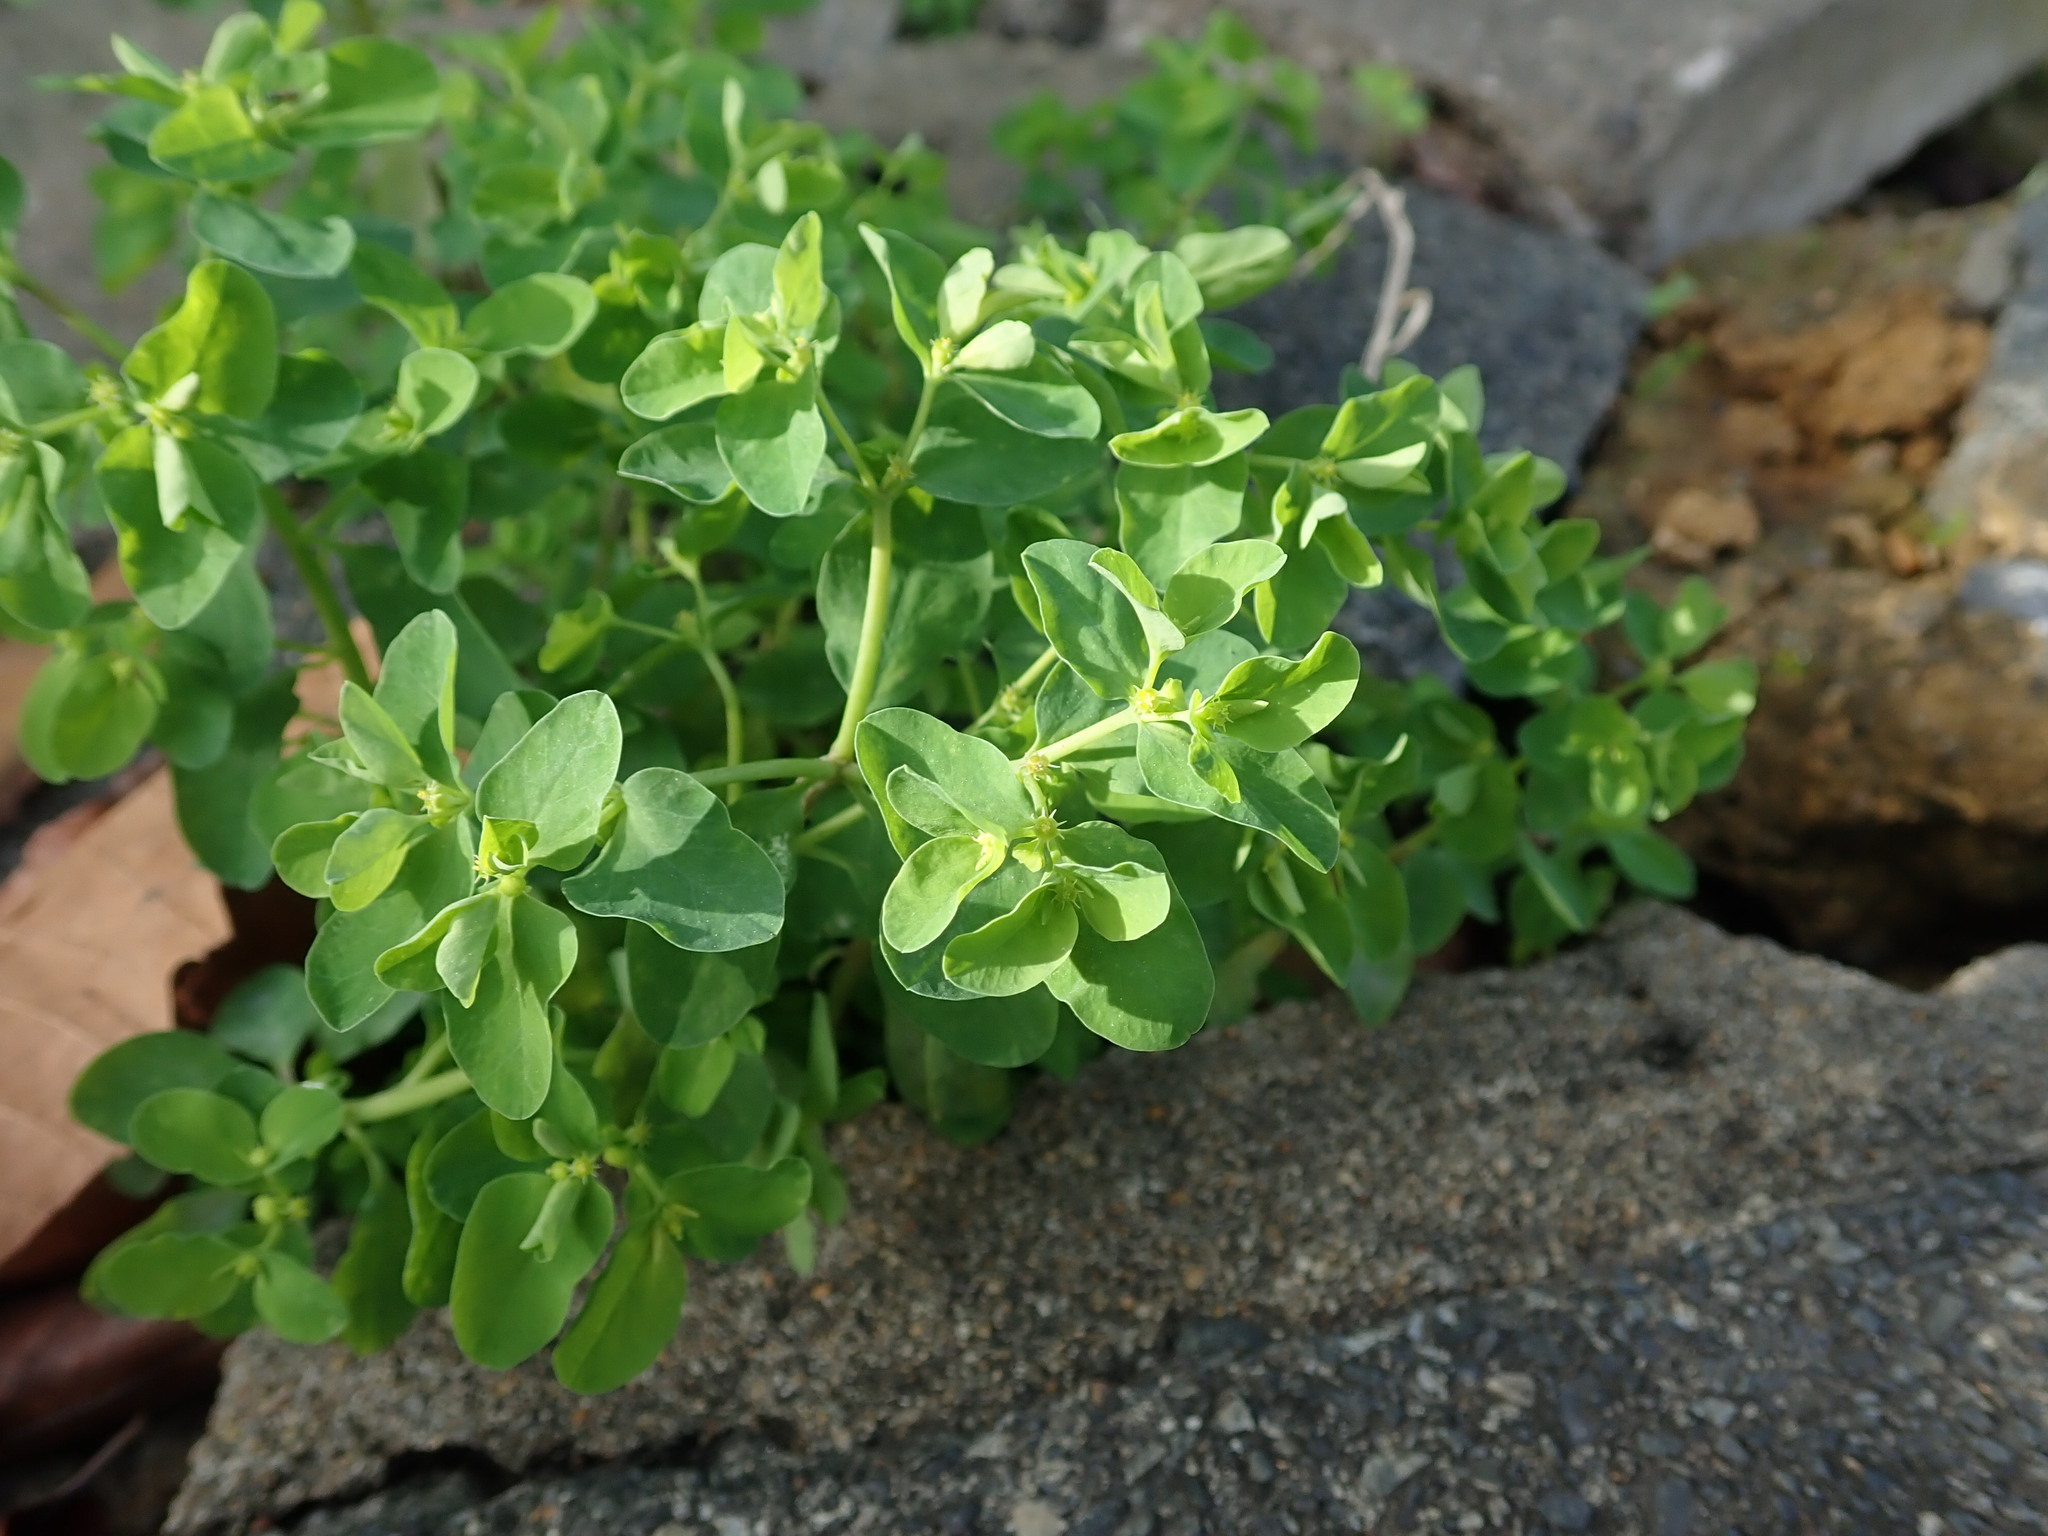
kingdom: Plantae
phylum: Tracheophyta
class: Magnoliopsida
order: Malpighiales
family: Euphorbiaceae
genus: Euphorbia
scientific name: Euphorbia peplus
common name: Petty spurge
